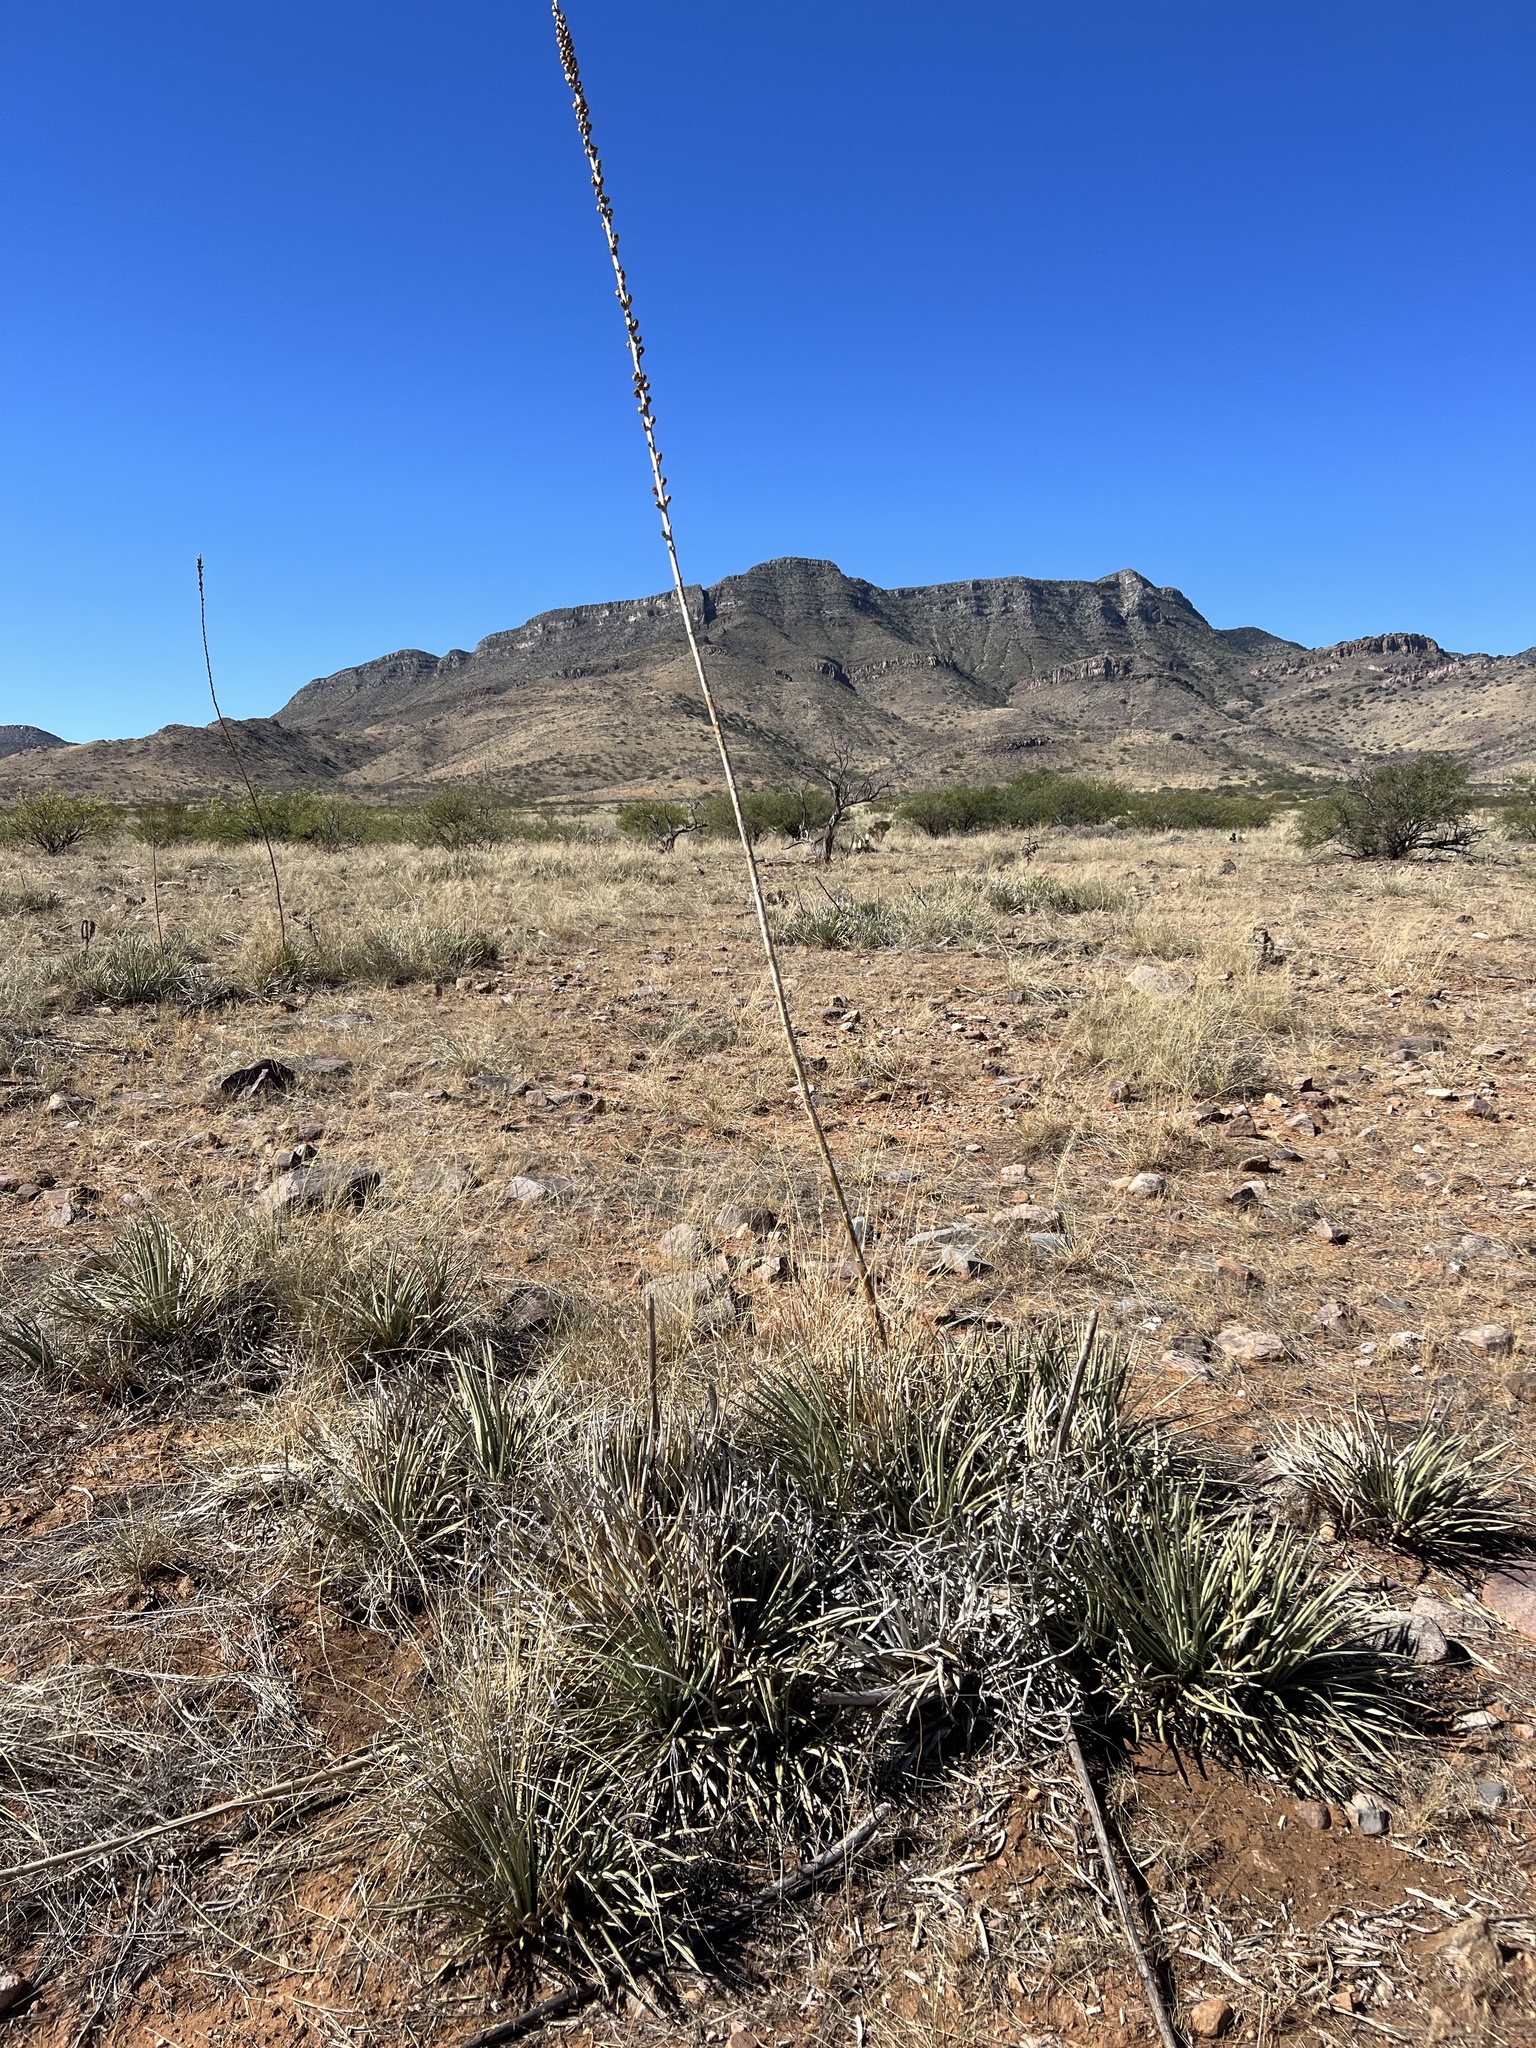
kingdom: Plantae
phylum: Tracheophyta
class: Liliopsida
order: Asparagales
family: Asparagaceae
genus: Agave
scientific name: Agave schottii
